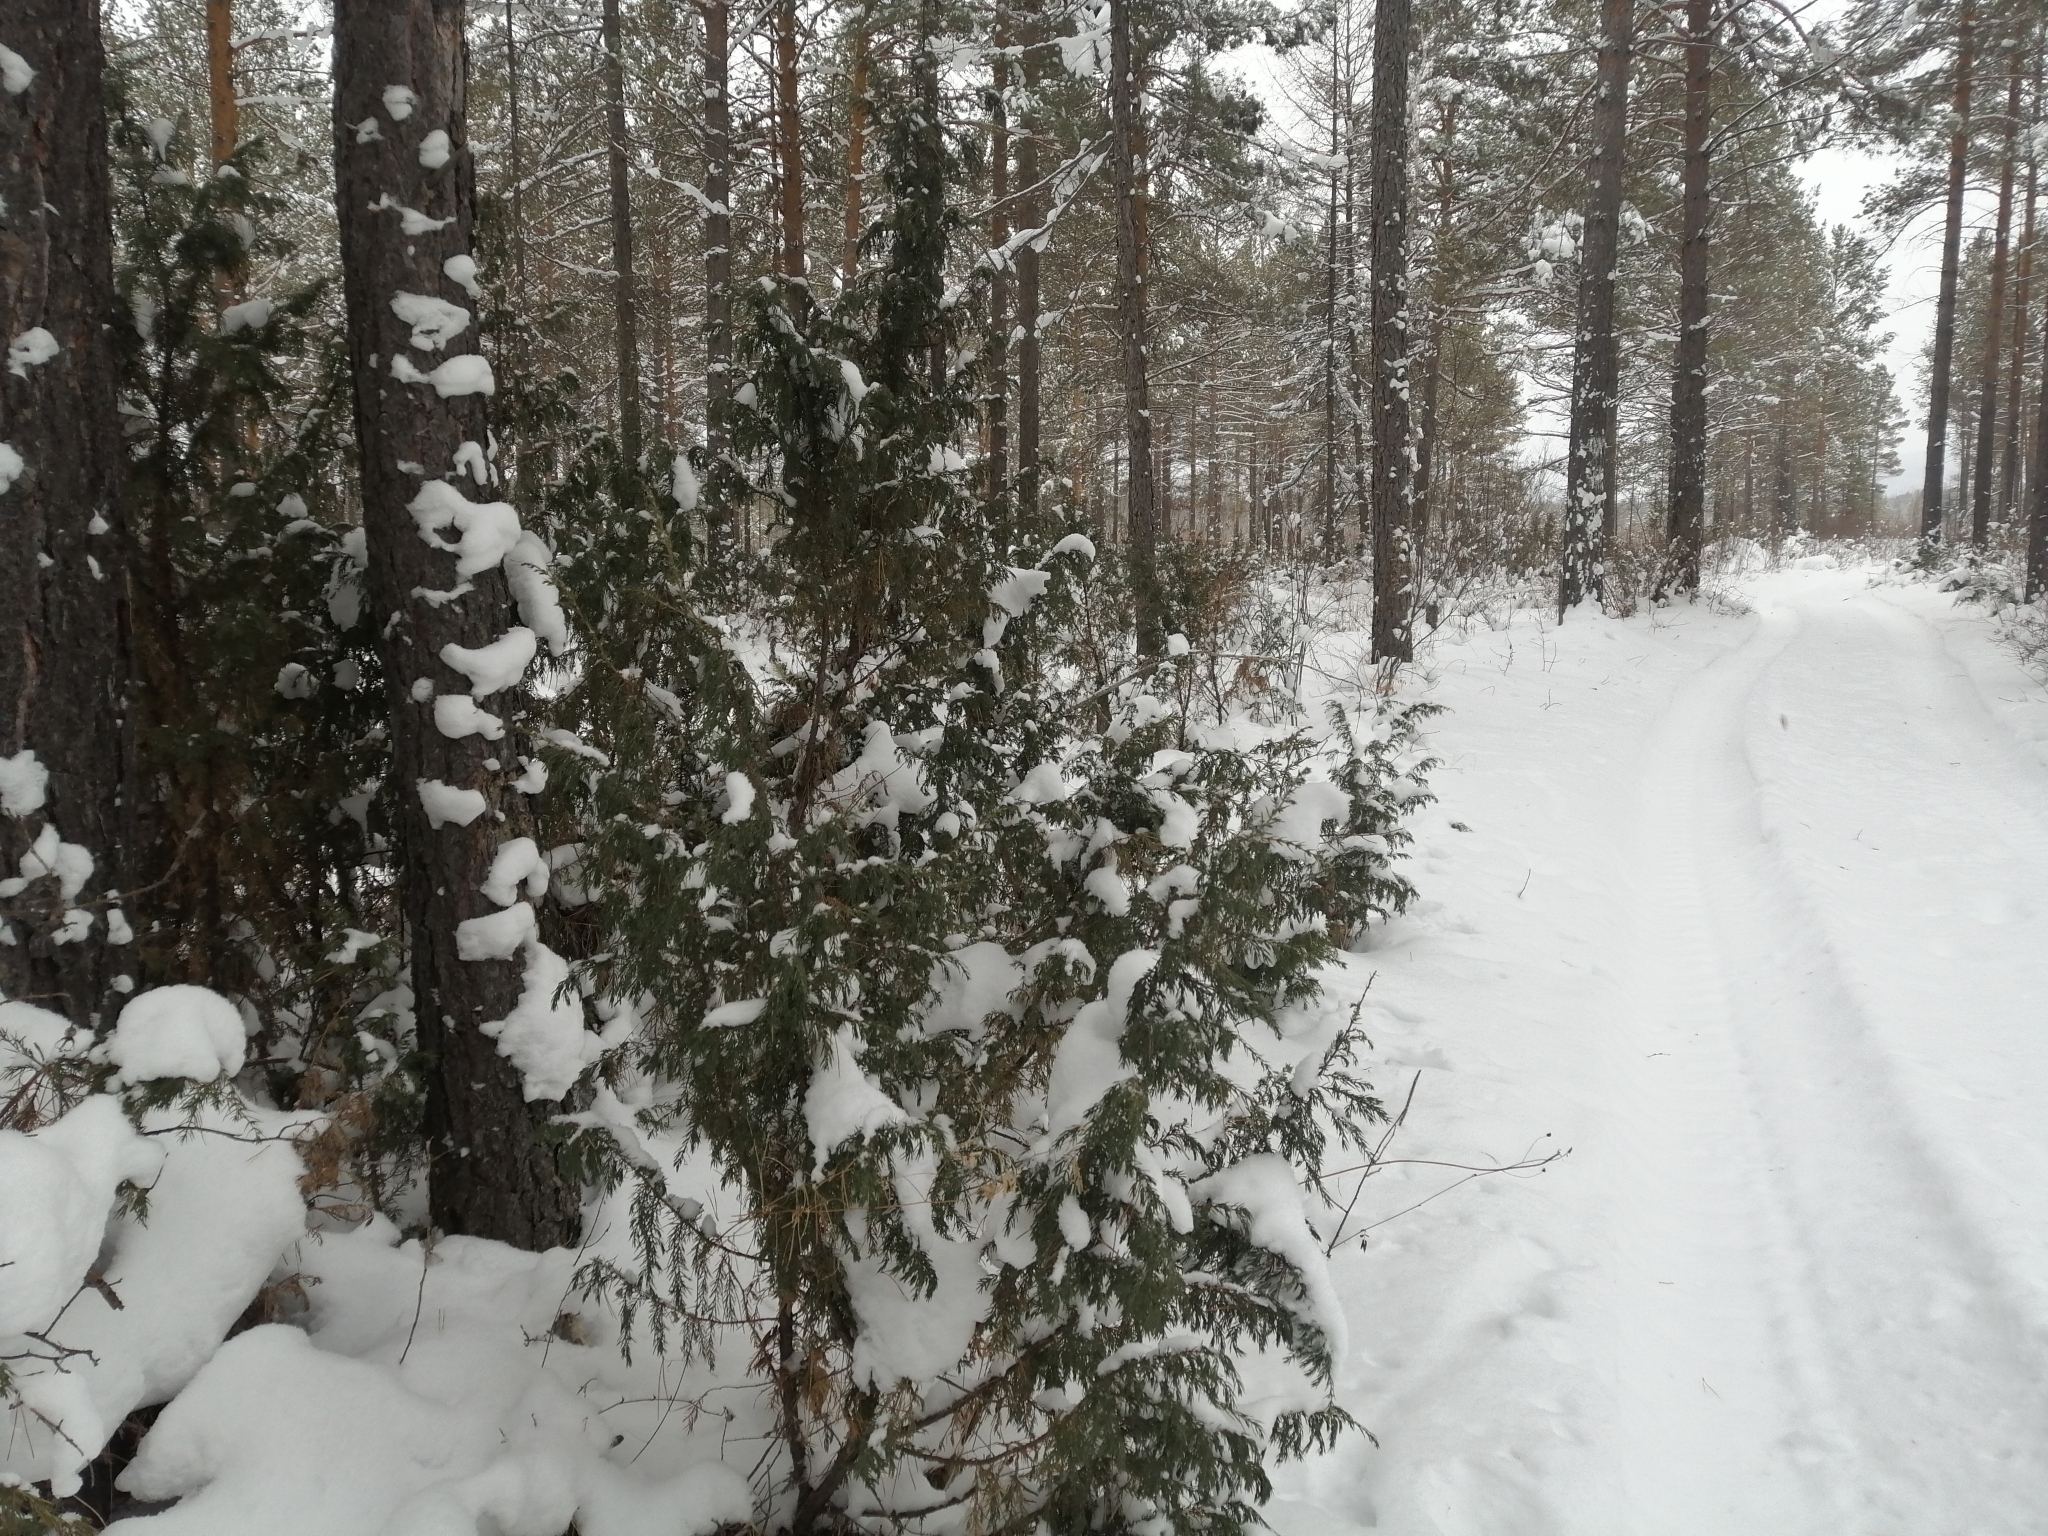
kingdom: Plantae
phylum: Tracheophyta
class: Pinopsida
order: Pinales
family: Cupressaceae
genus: Juniperus
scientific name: Juniperus communis
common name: Common juniper
